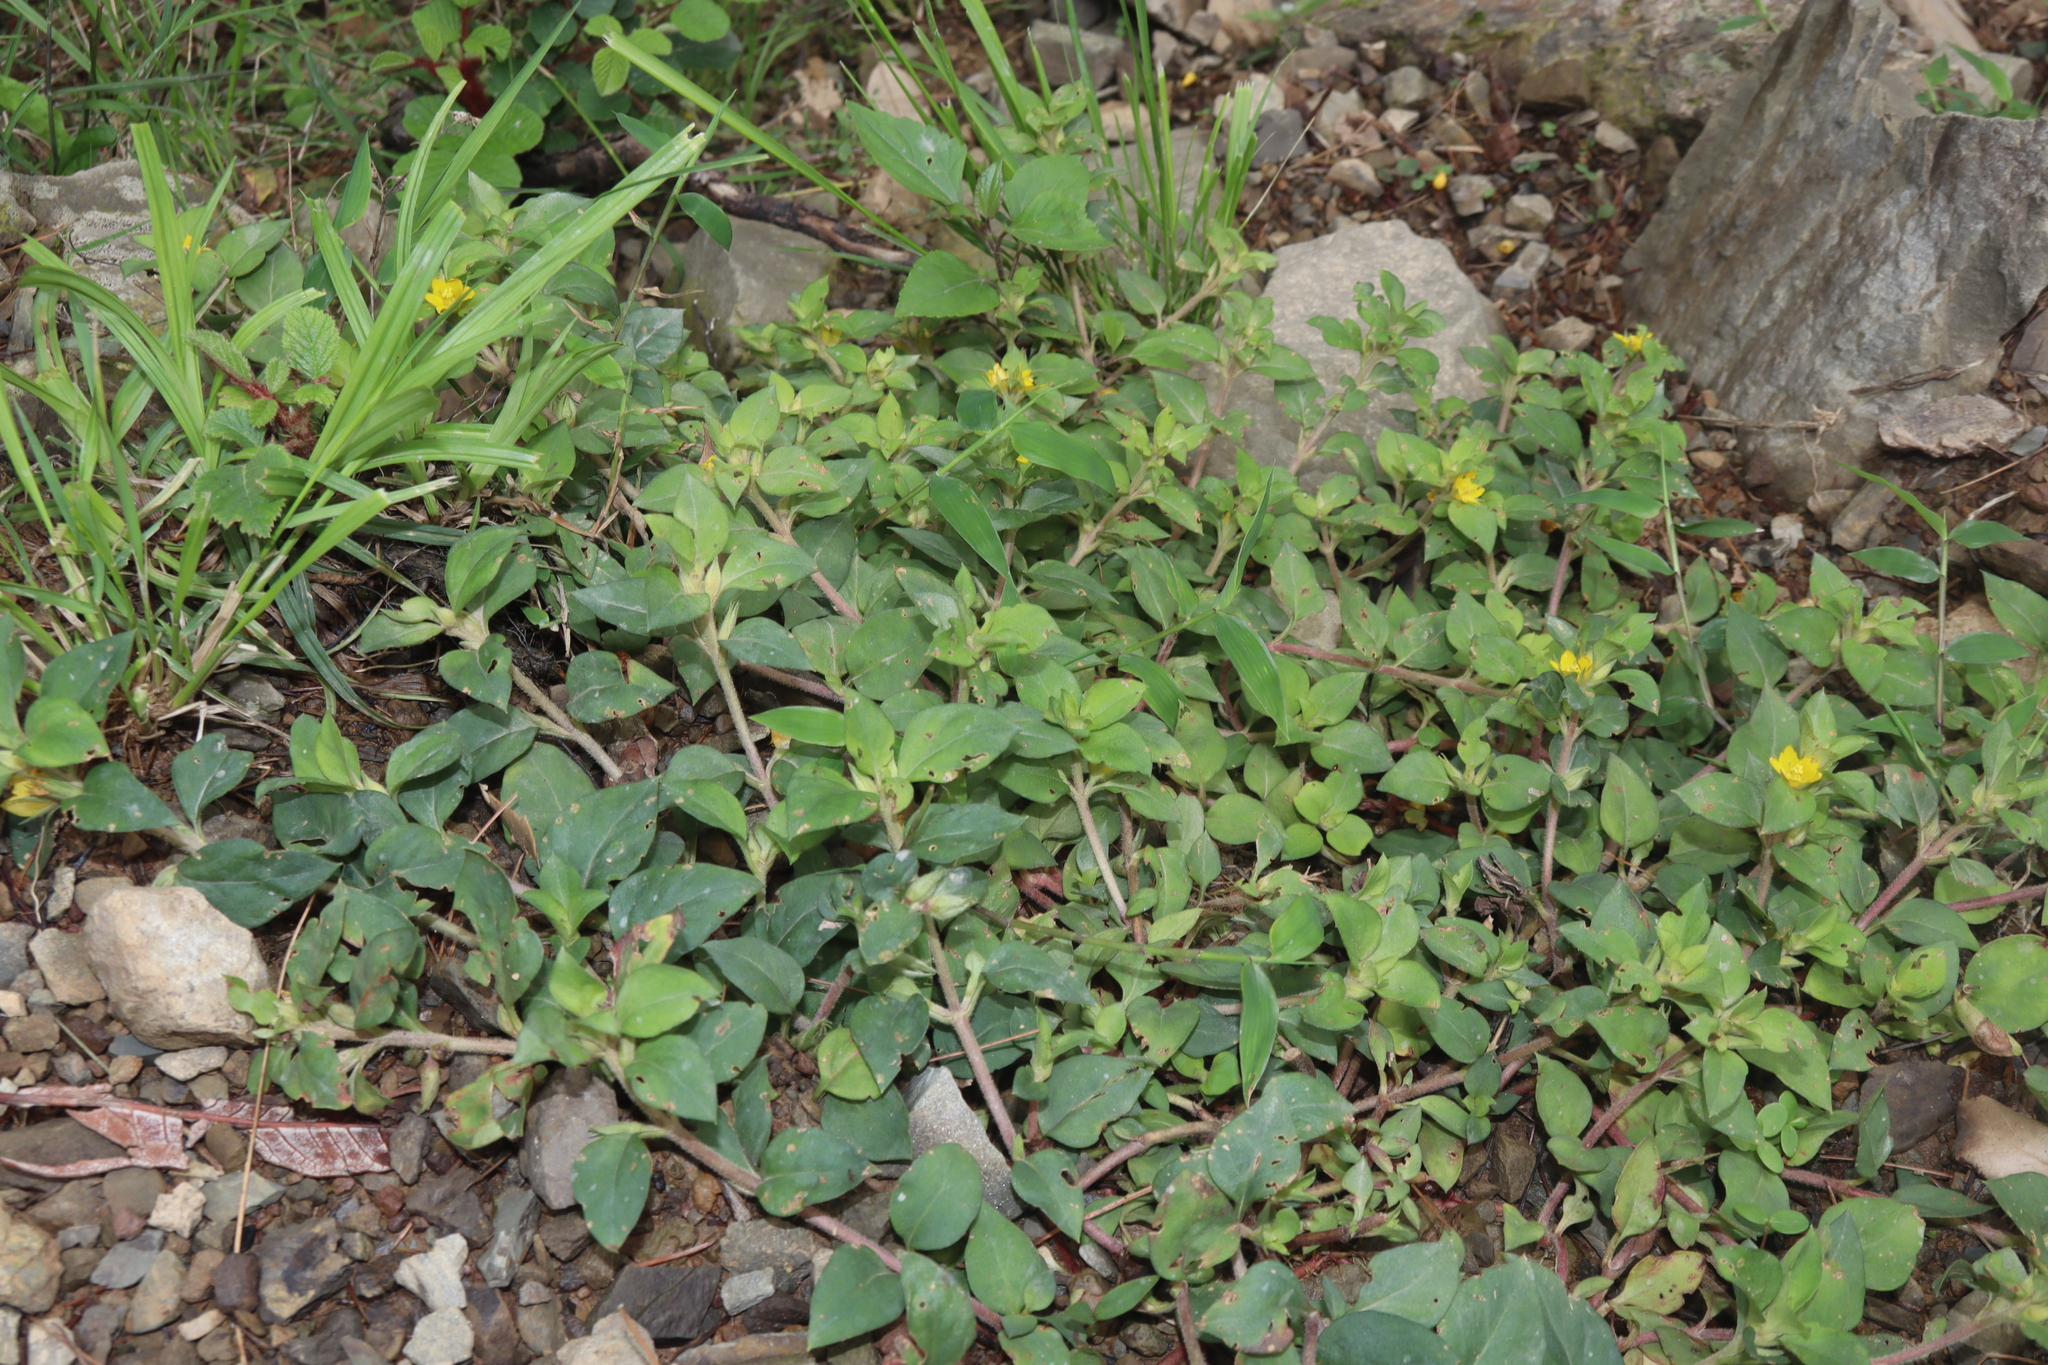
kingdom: Plantae
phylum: Tracheophyta
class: Magnoliopsida
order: Ericales
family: Primulaceae
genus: Lysimachia
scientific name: Lysimachia japonica
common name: Japanese yellow loosestrife
